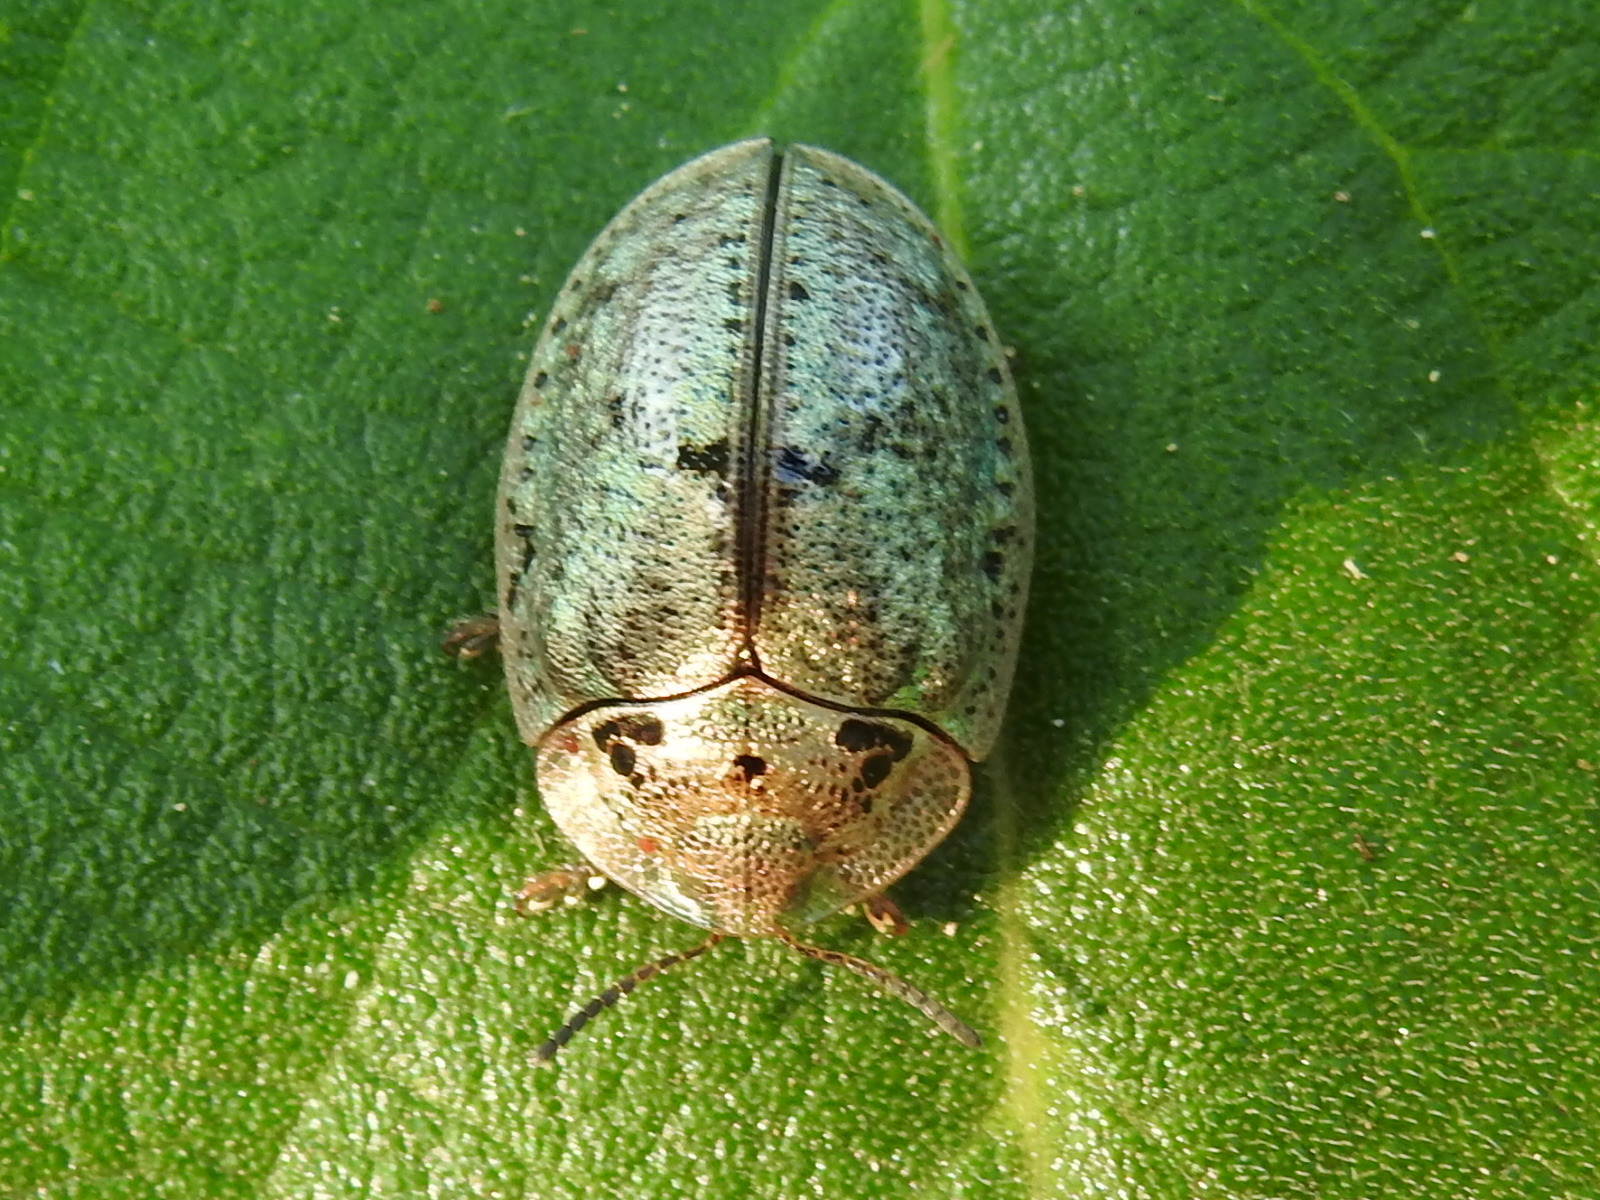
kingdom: Animalia
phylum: Arthropoda
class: Insecta
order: Coleoptera
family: Chrysomelidae
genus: Physonota
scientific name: Physonota alutacea
